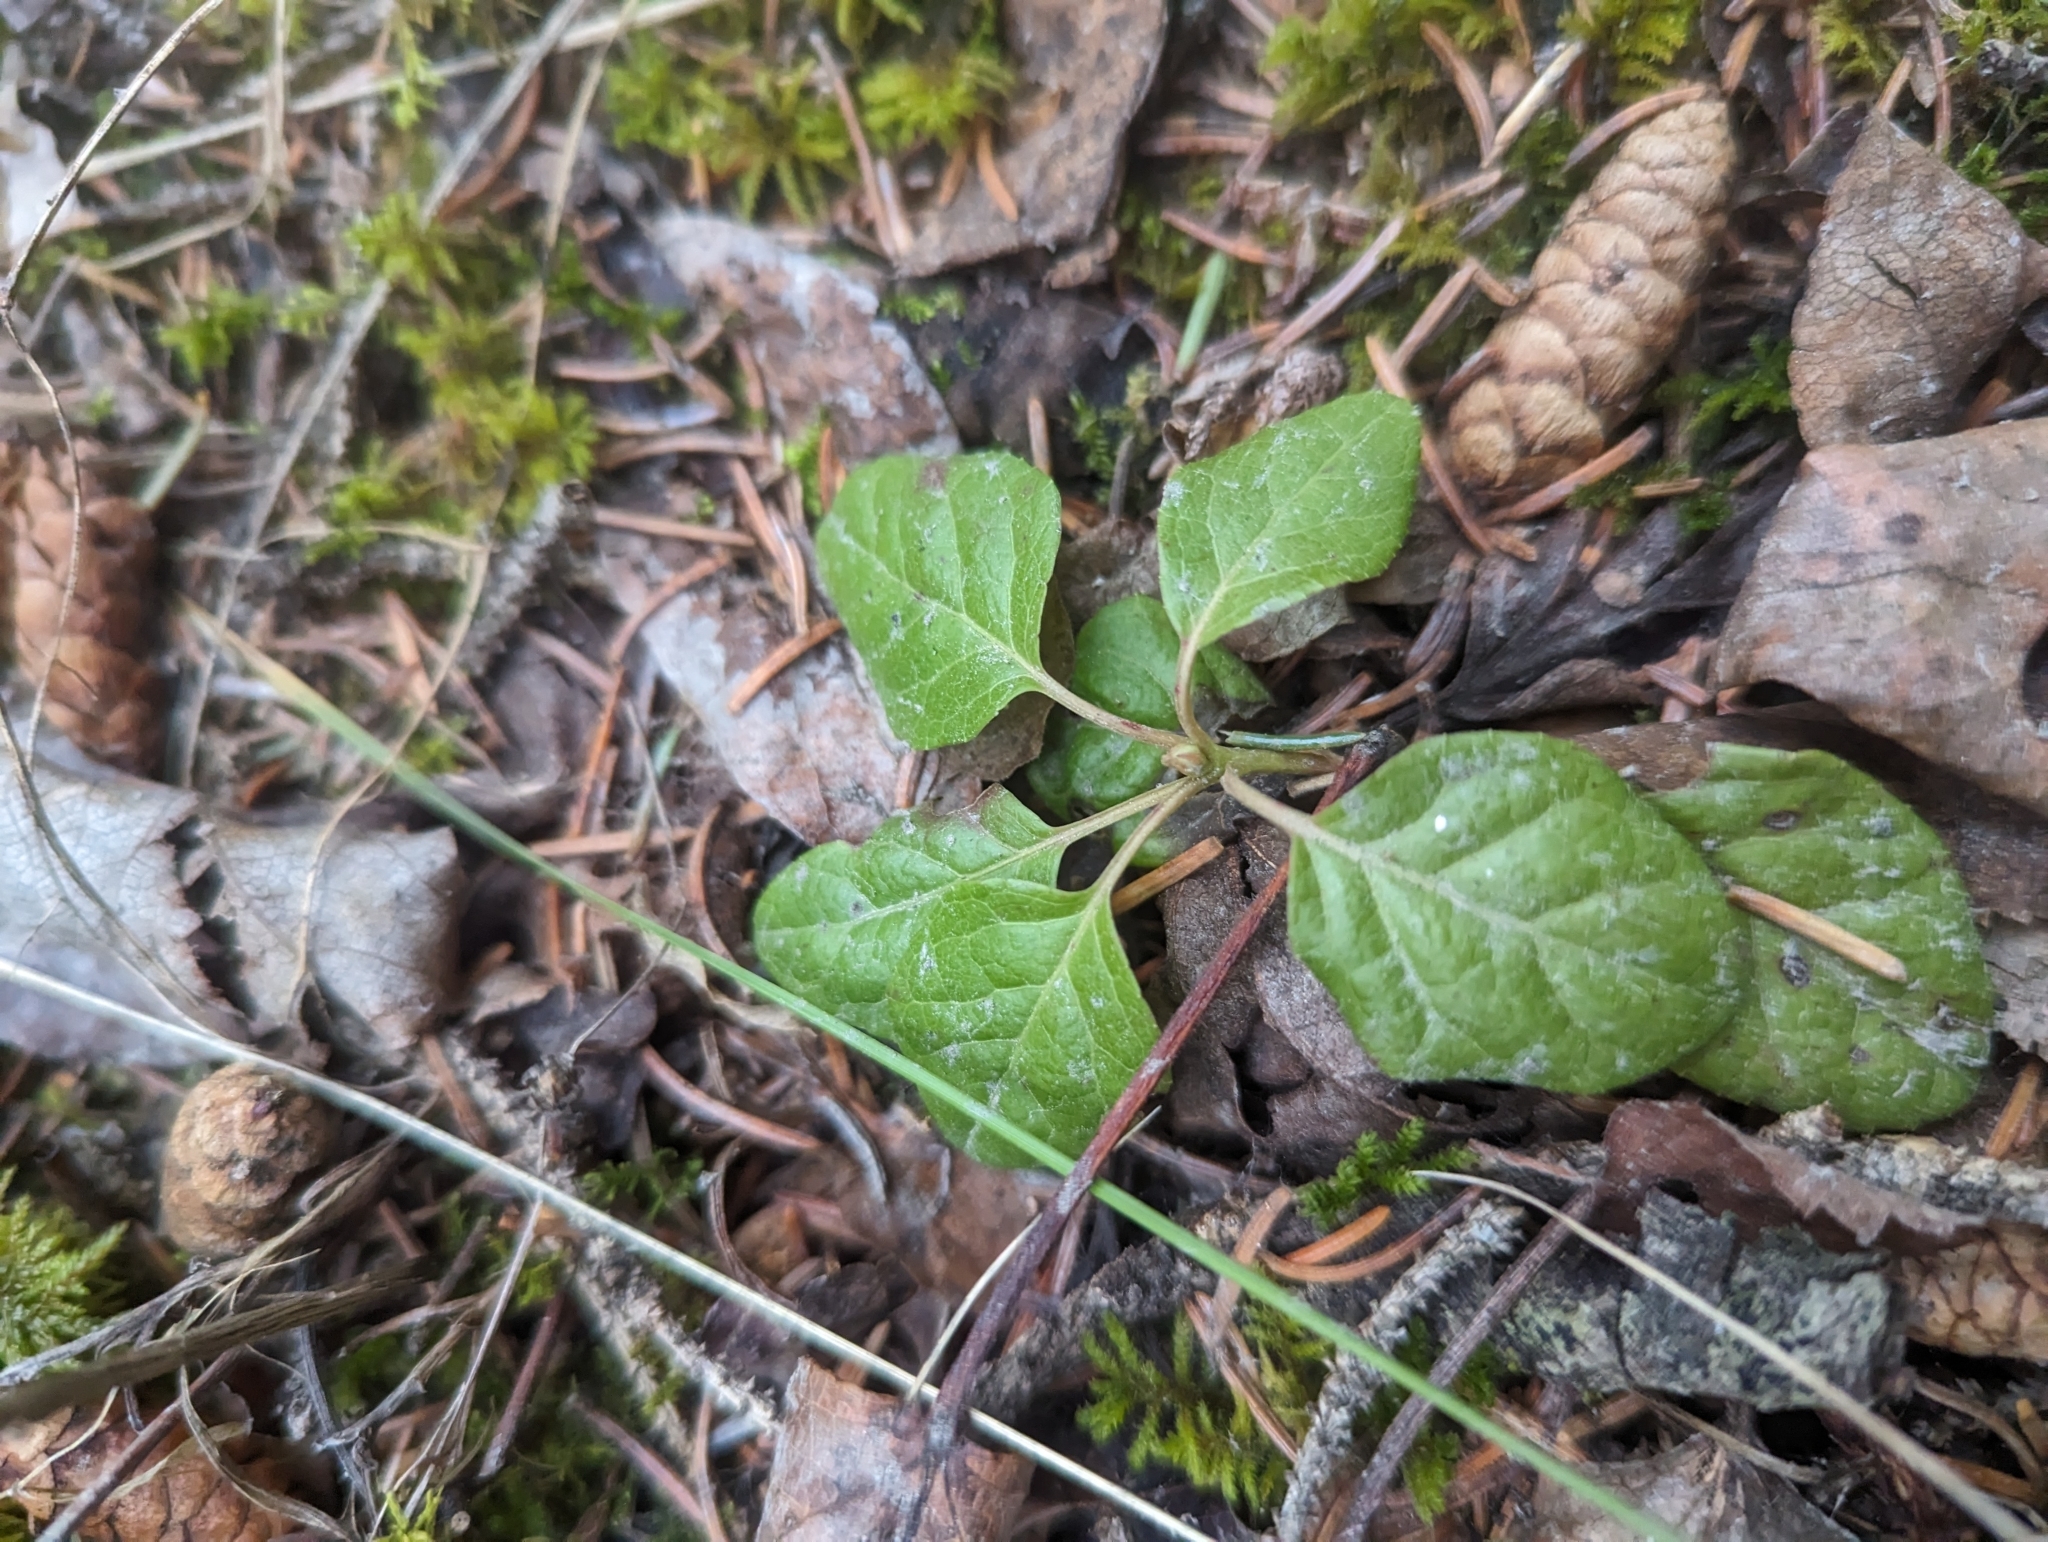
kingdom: Plantae
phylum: Tracheophyta
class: Magnoliopsida
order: Ericales
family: Ericaceae
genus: Orthilia
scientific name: Orthilia secunda
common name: One-sided orthilia
